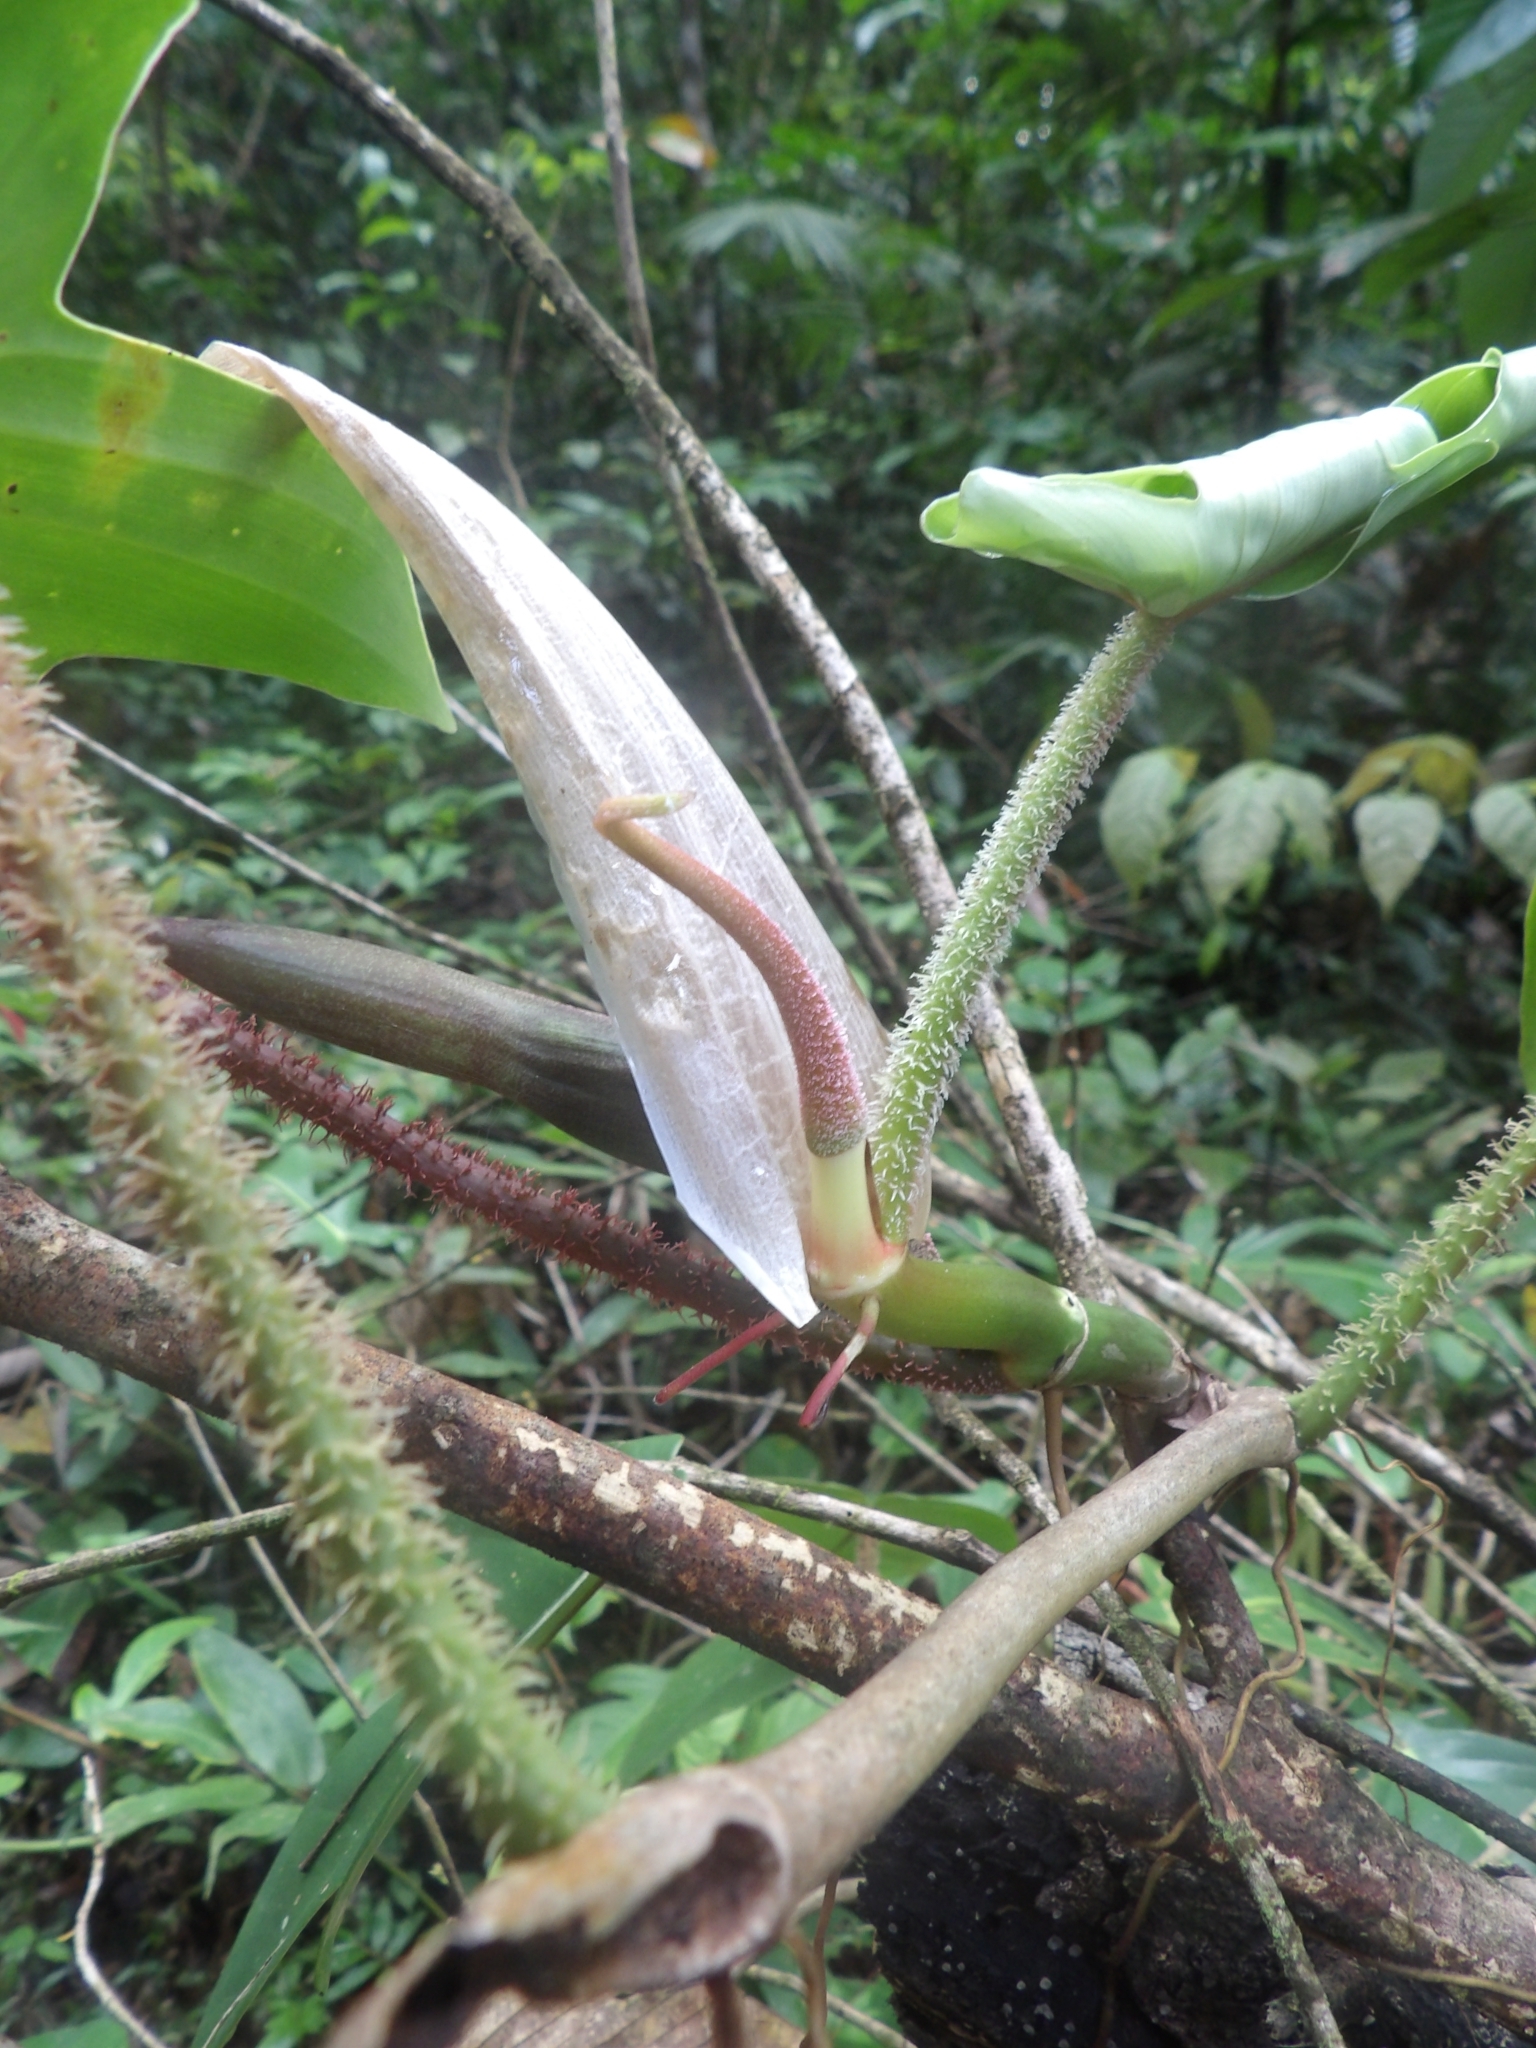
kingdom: Plantae
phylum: Tracheophyta
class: Liliopsida
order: Alismatales
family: Araceae
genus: Philodendron
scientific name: Philodendron squamiferum
